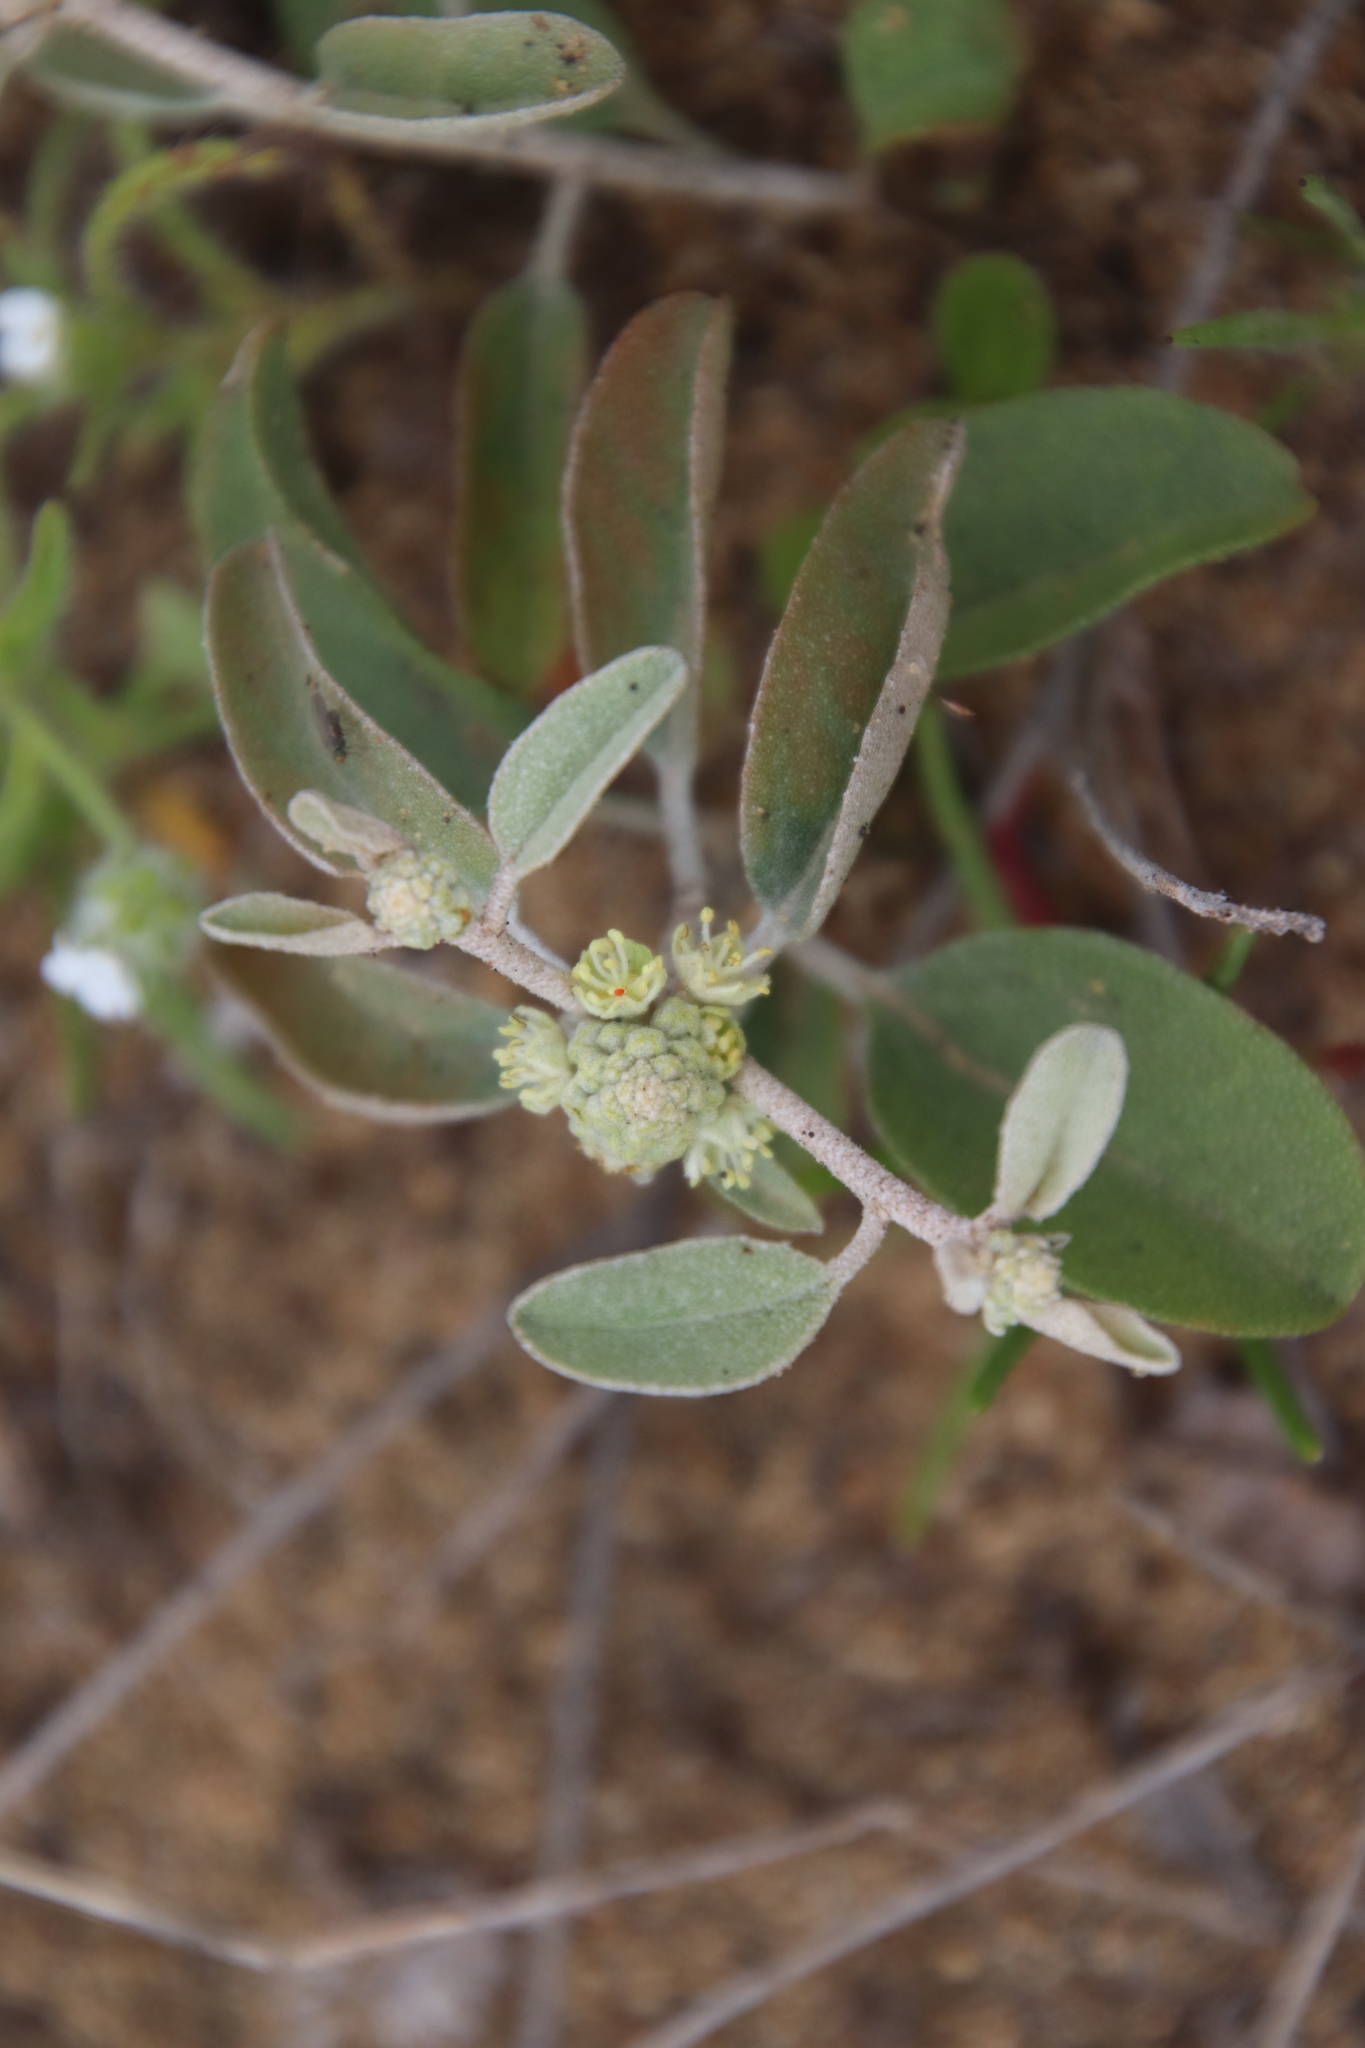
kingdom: Plantae
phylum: Tracheophyta
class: Magnoliopsida
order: Malpighiales
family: Euphorbiaceae
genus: Croton
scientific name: Croton californicus
